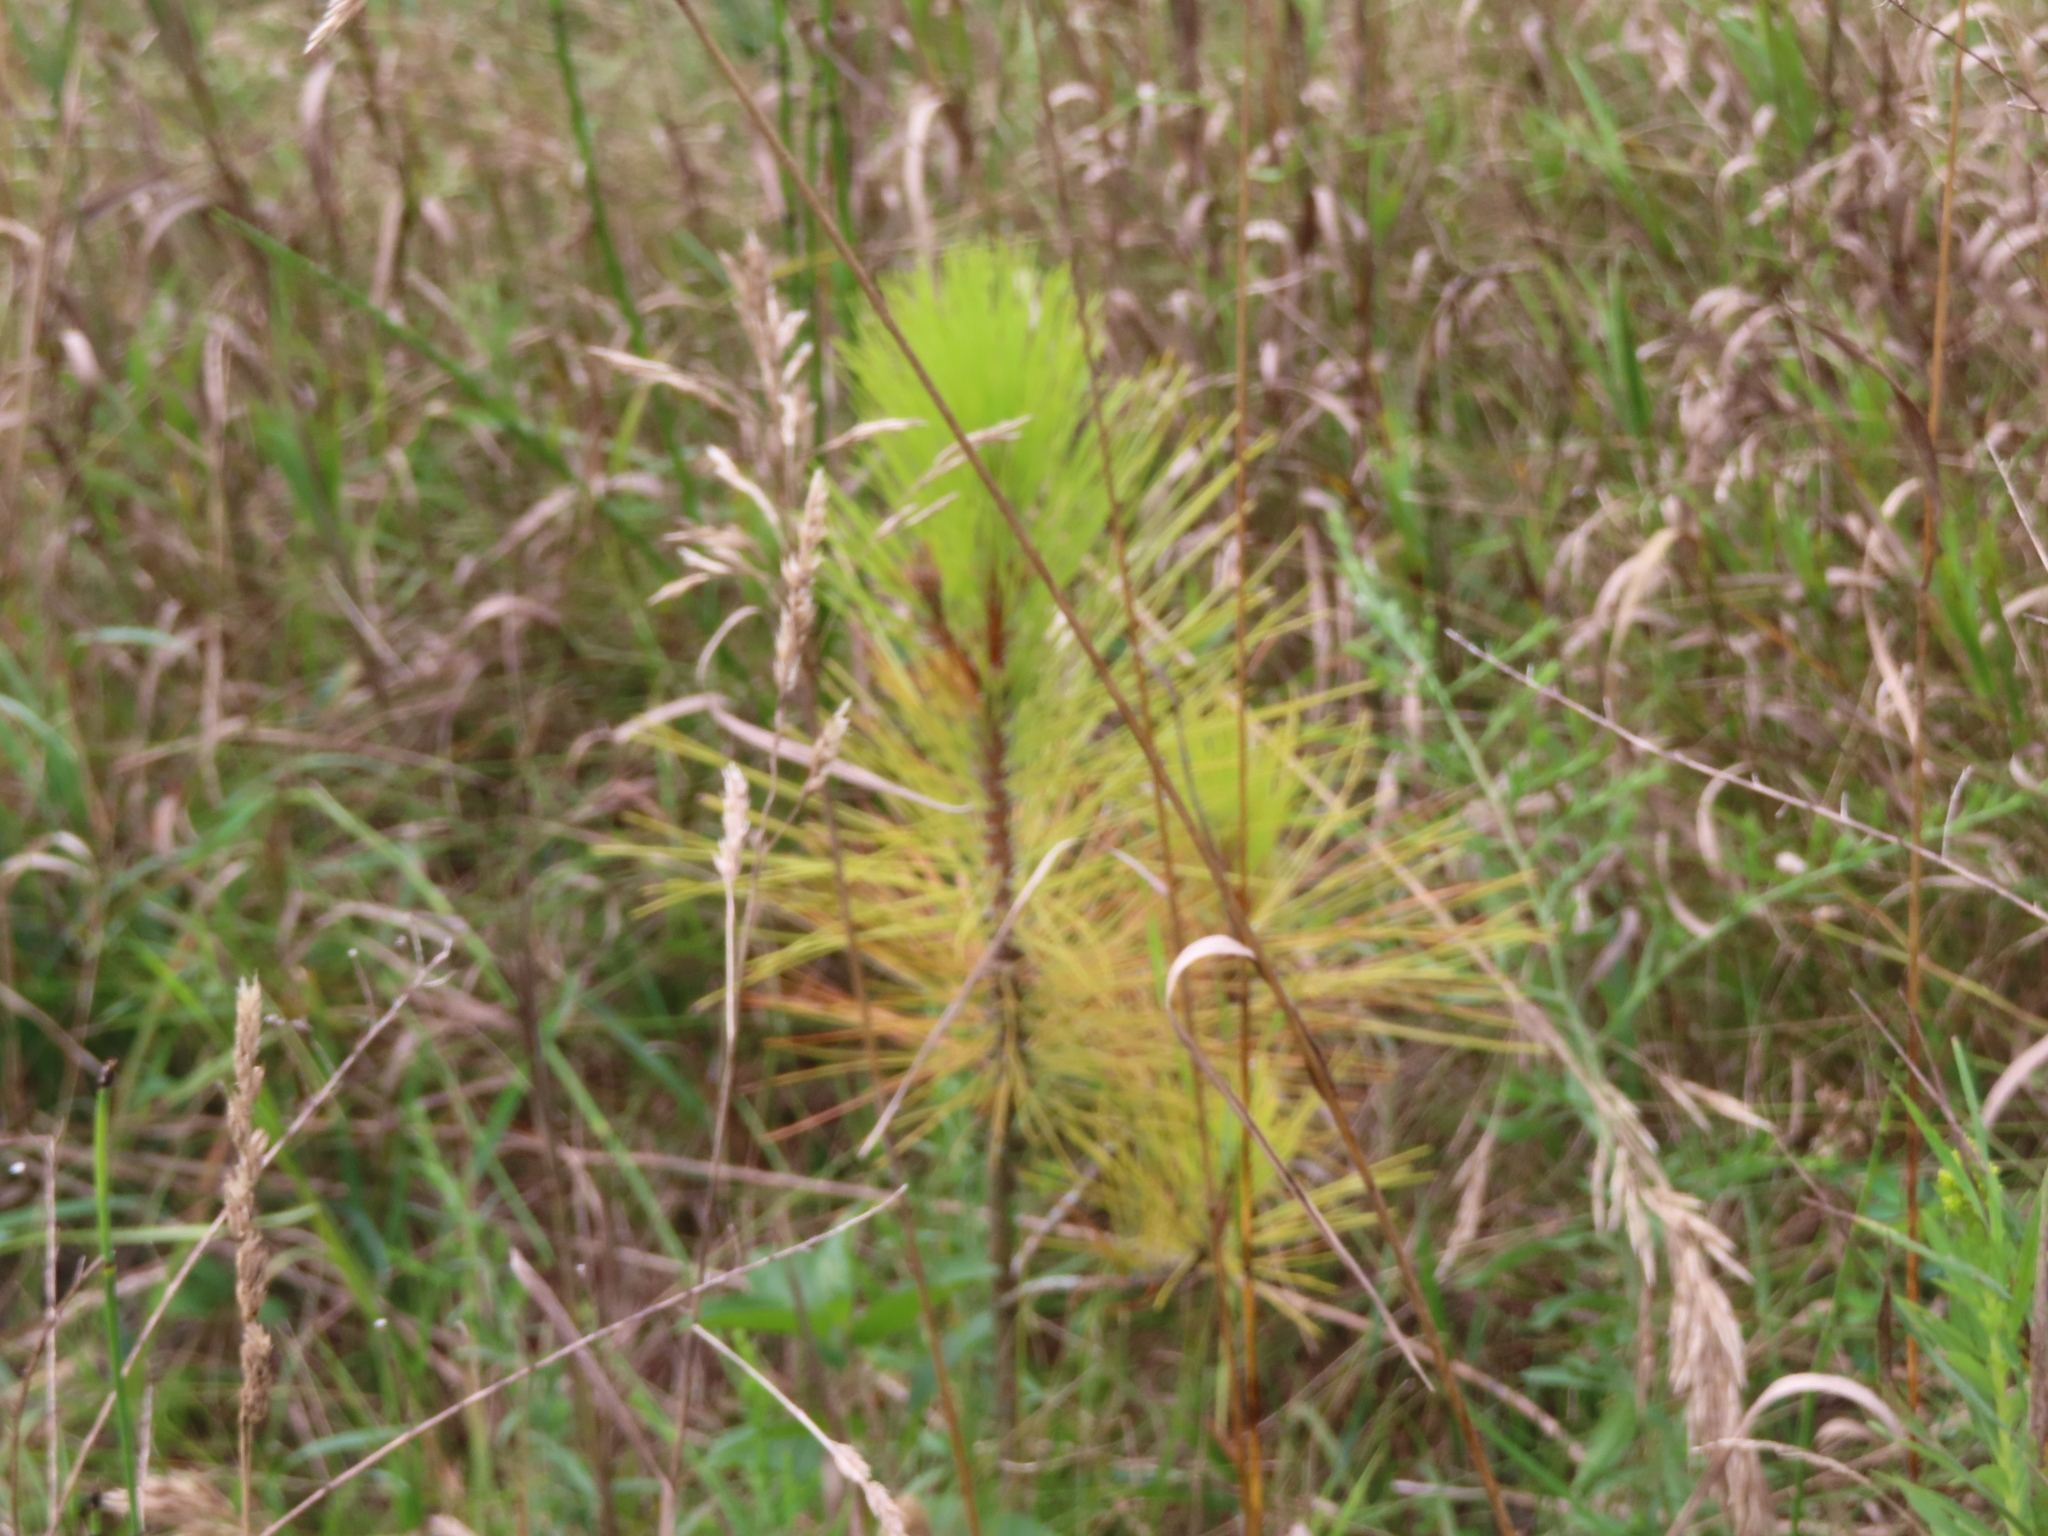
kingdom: Plantae
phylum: Tracheophyta
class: Pinopsida
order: Pinales
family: Pinaceae
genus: Pinus
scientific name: Pinus resinosa
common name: Norway pine
